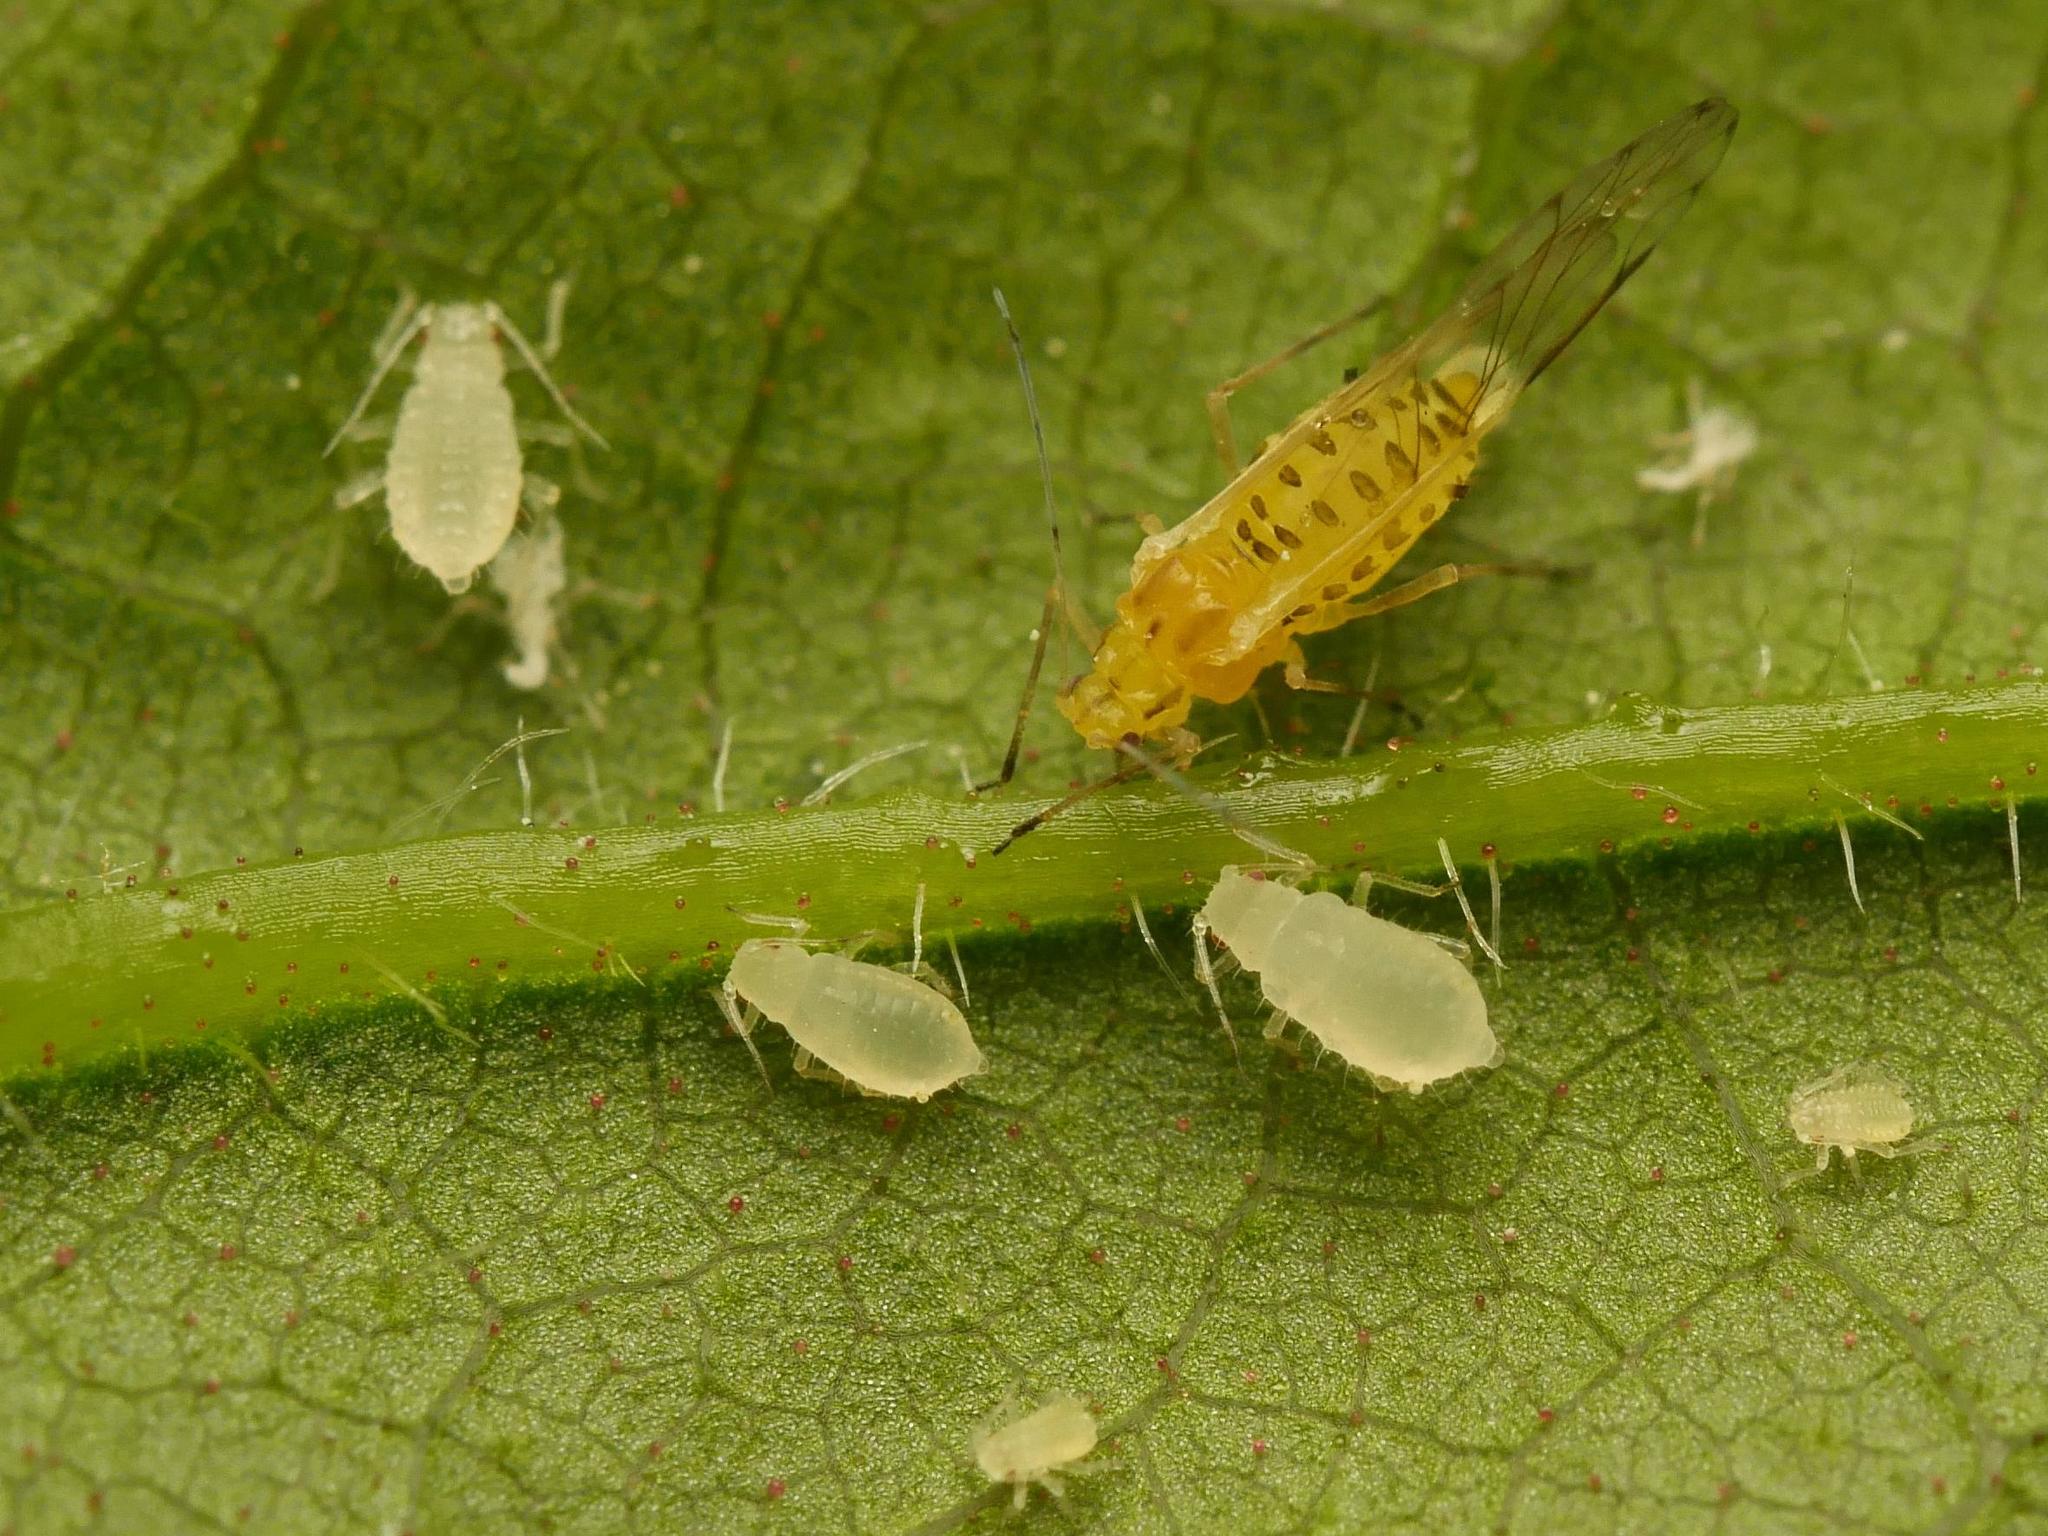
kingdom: Animalia
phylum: Arthropoda
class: Insecta
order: Hemiptera
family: Aphididae
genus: Takecallis
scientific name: Takecallis
